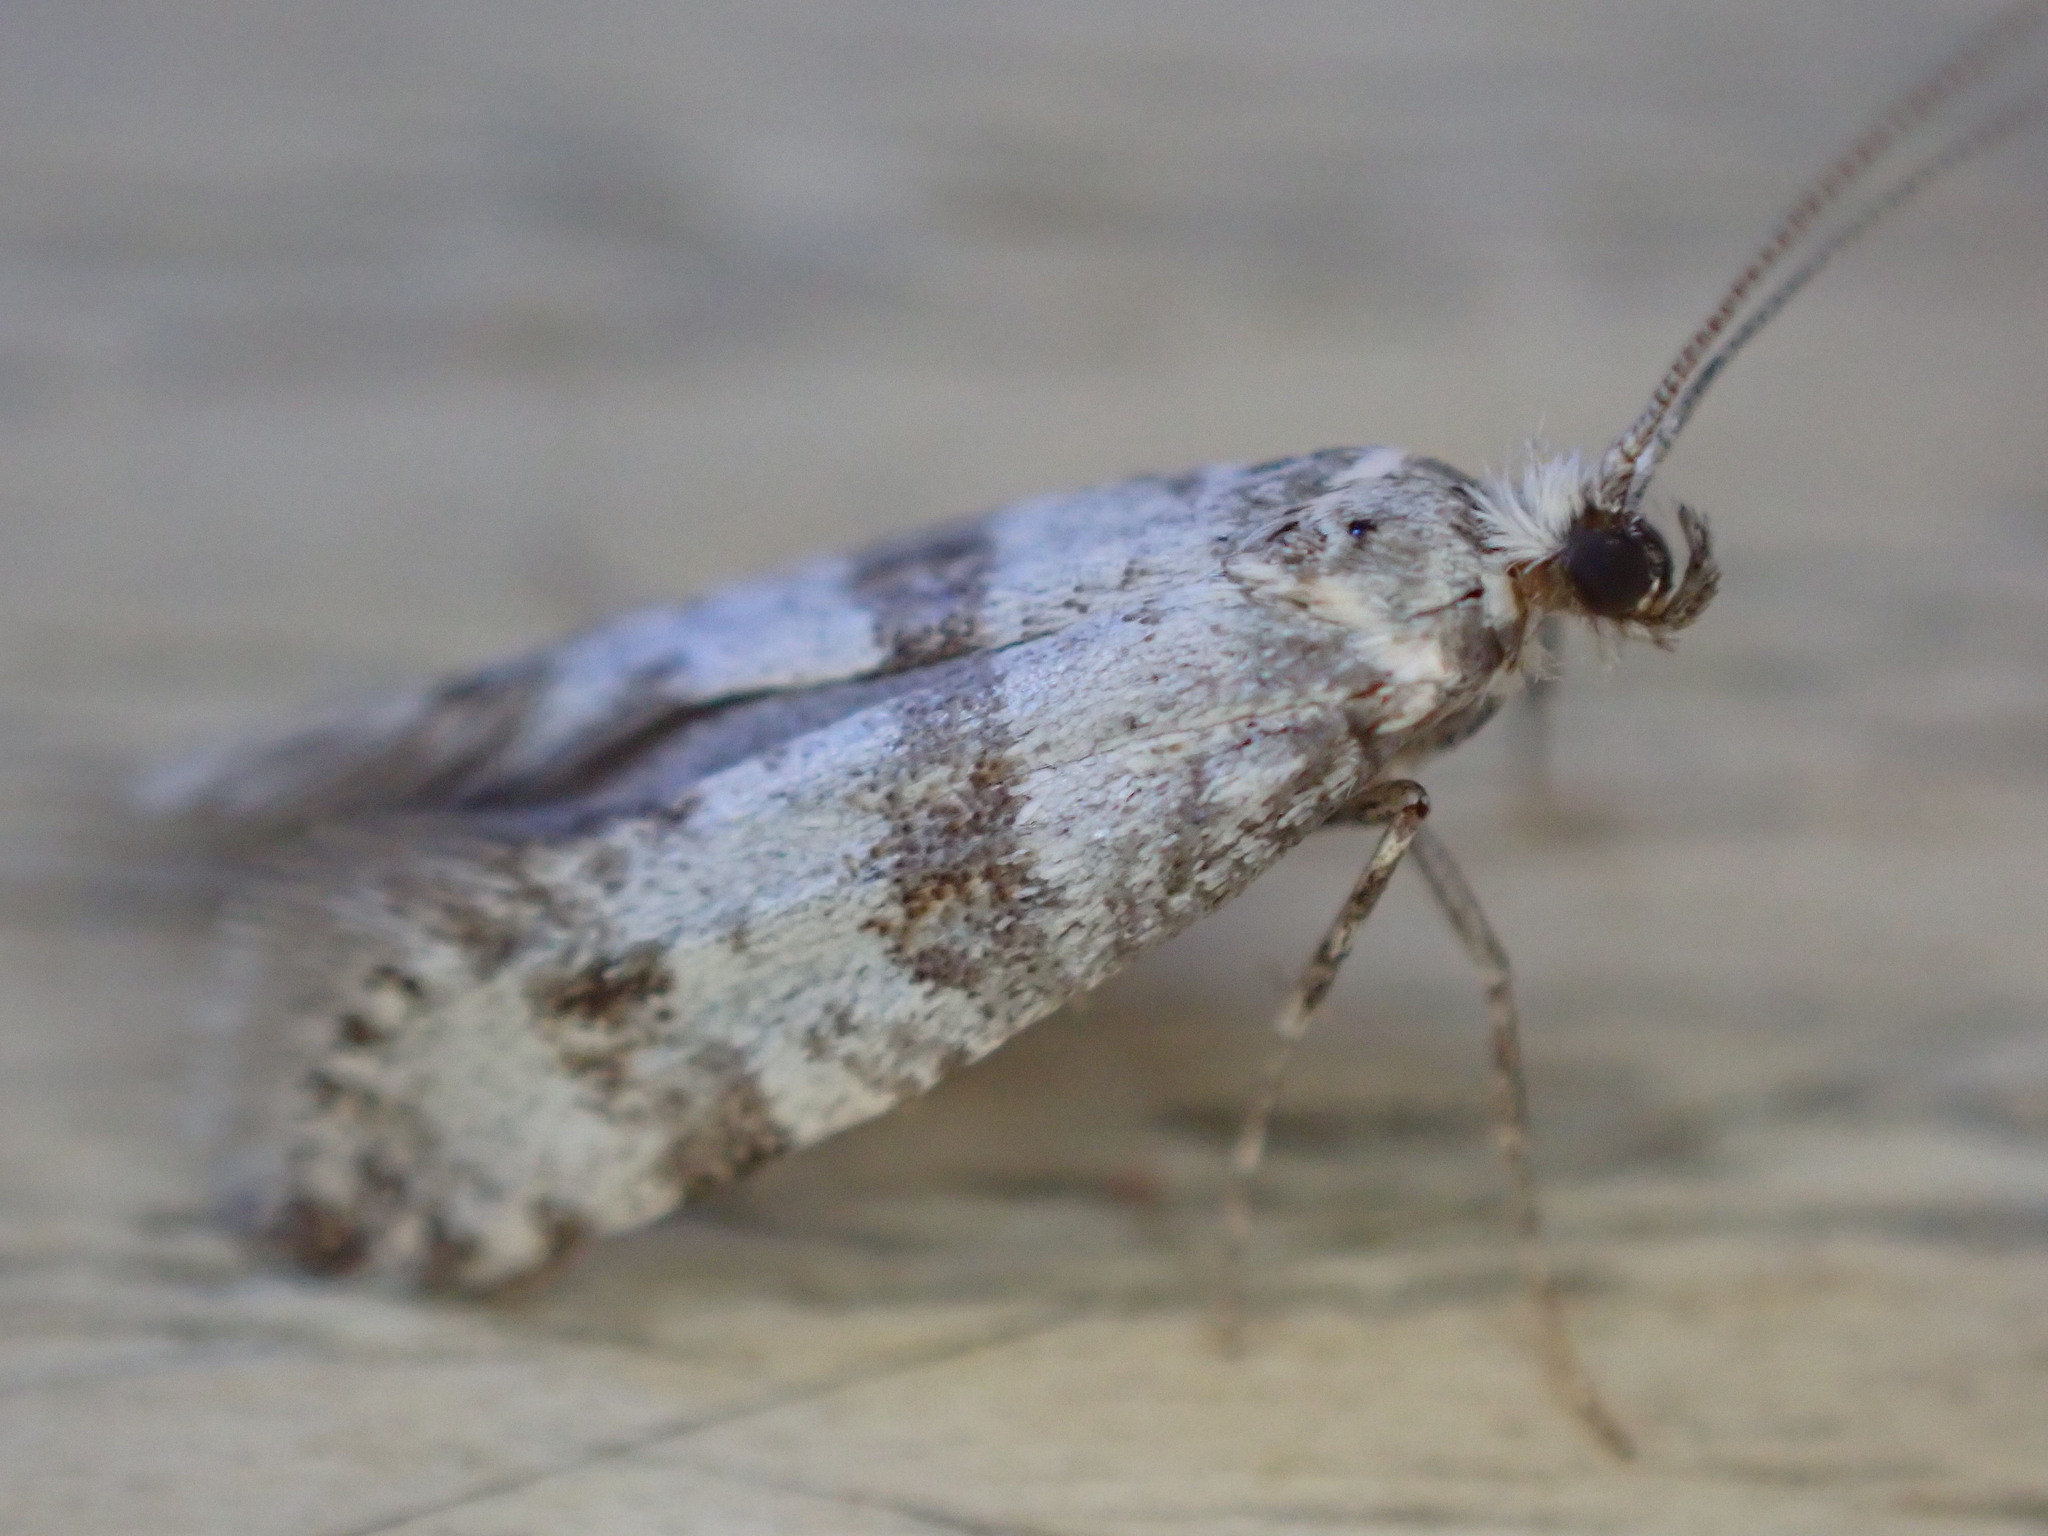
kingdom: Animalia
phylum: Arthropoda
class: Insecta
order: Lepidoptera
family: Yponomeutidae
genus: Scythropia
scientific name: Scythropia crataegella
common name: Hawthorn moth
